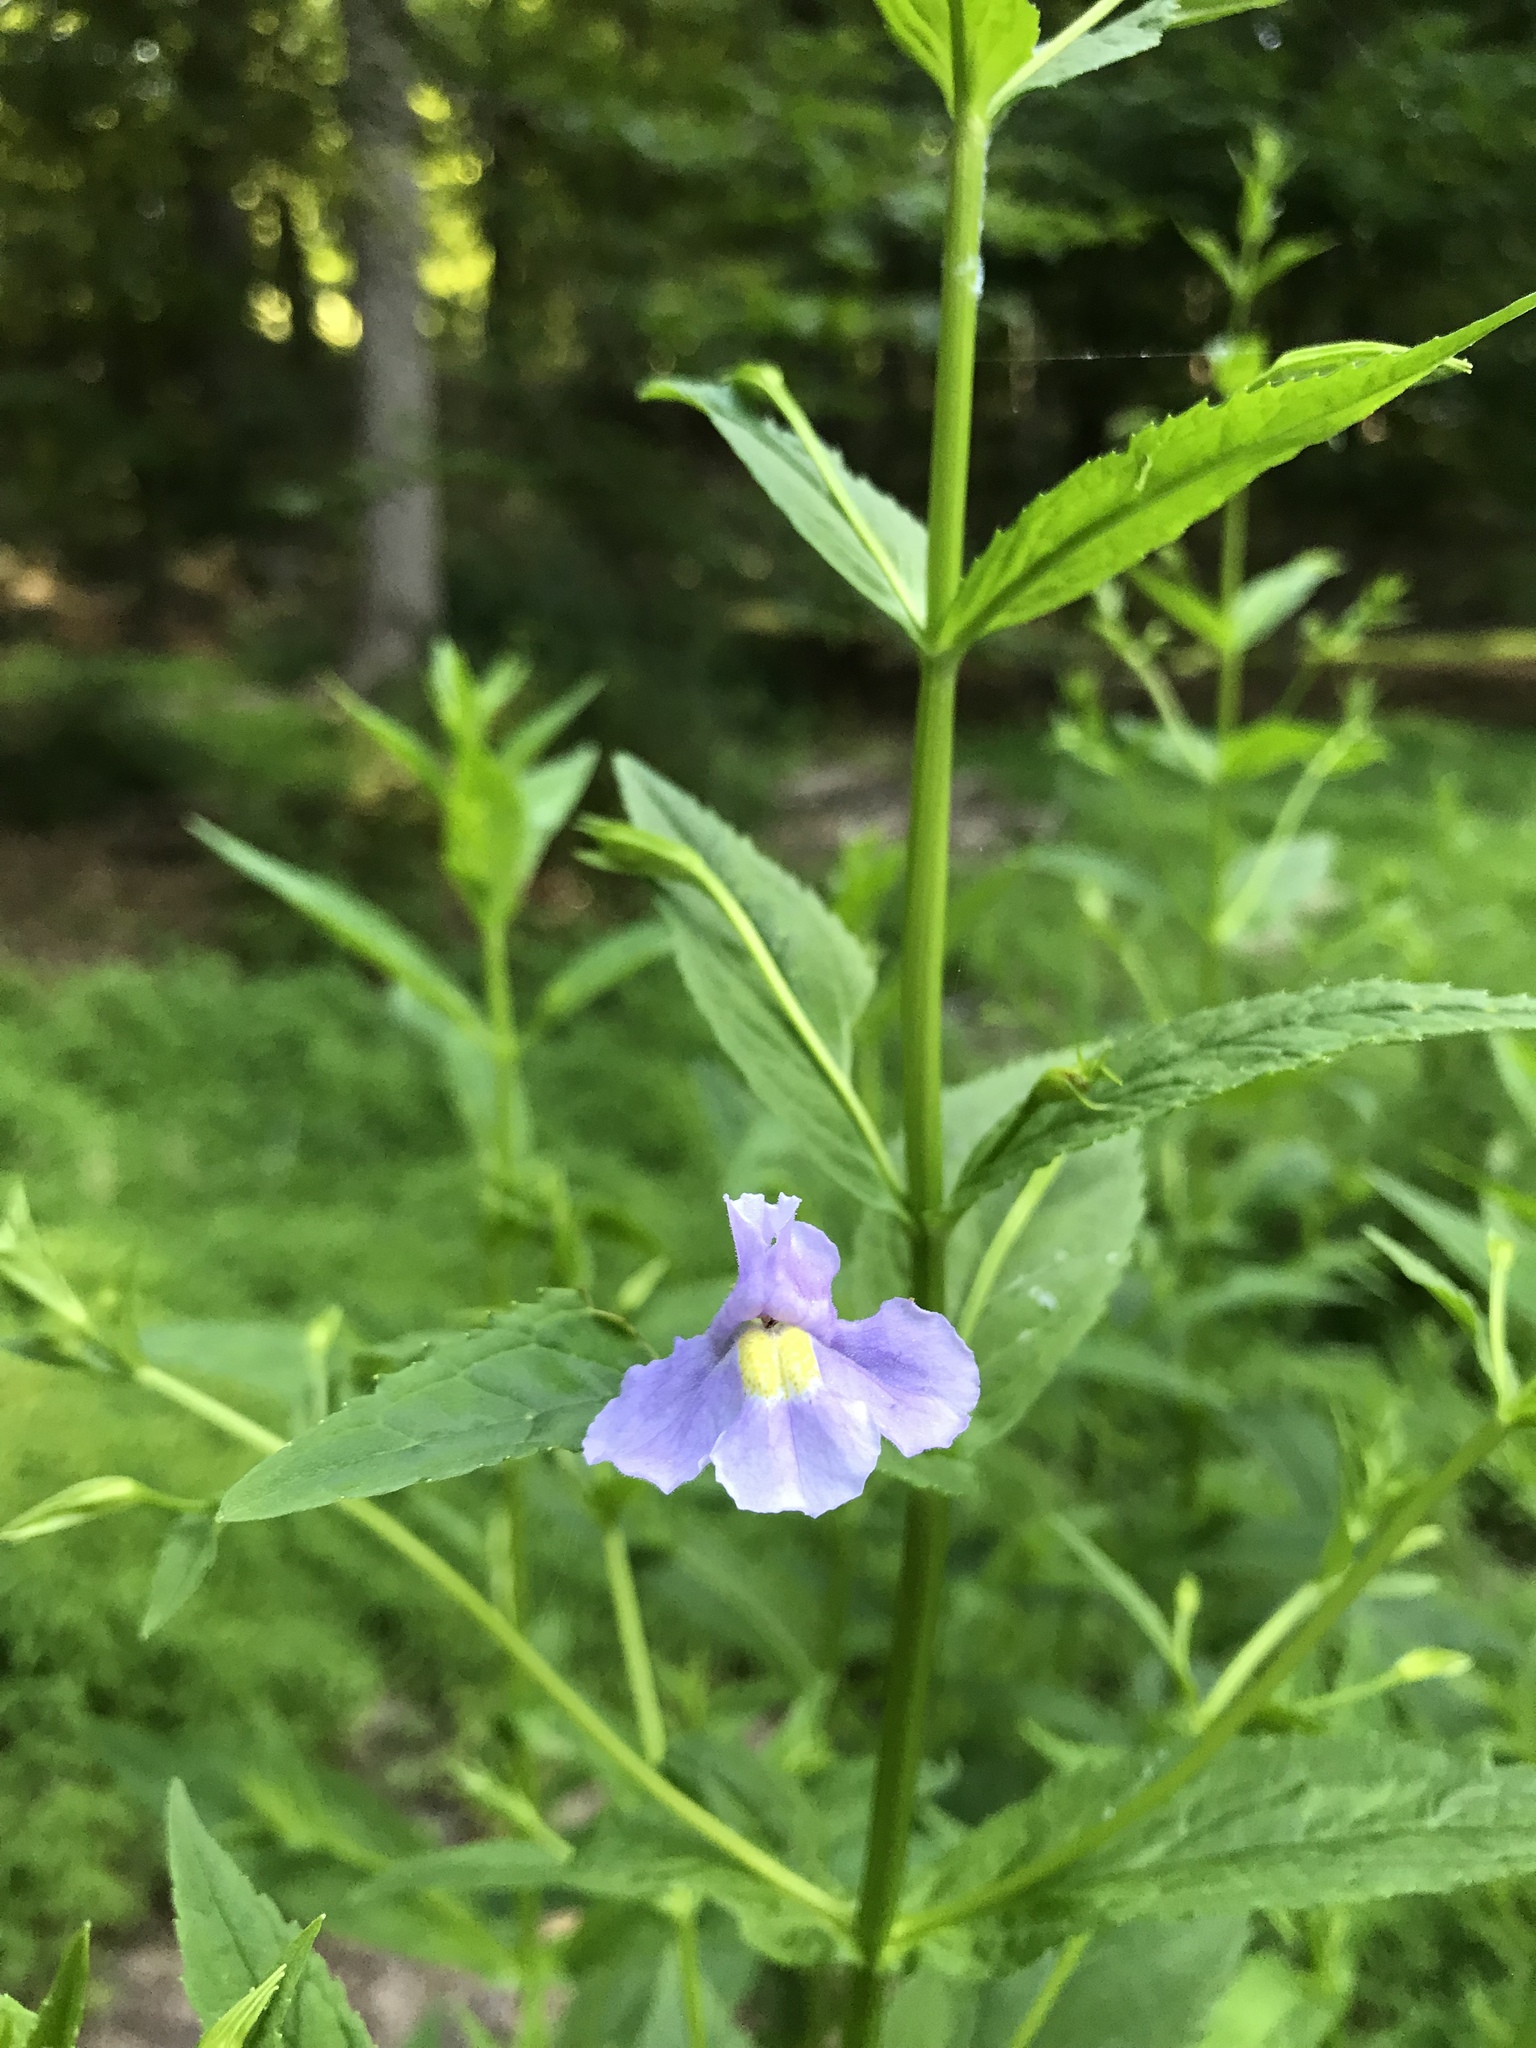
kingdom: Plantae
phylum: Tracheophyta
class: Magnoliopsida
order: Lamiales
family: Phrymaceae
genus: Mimulus
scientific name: Mimulus ringens
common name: Allegheny monkeyflower
